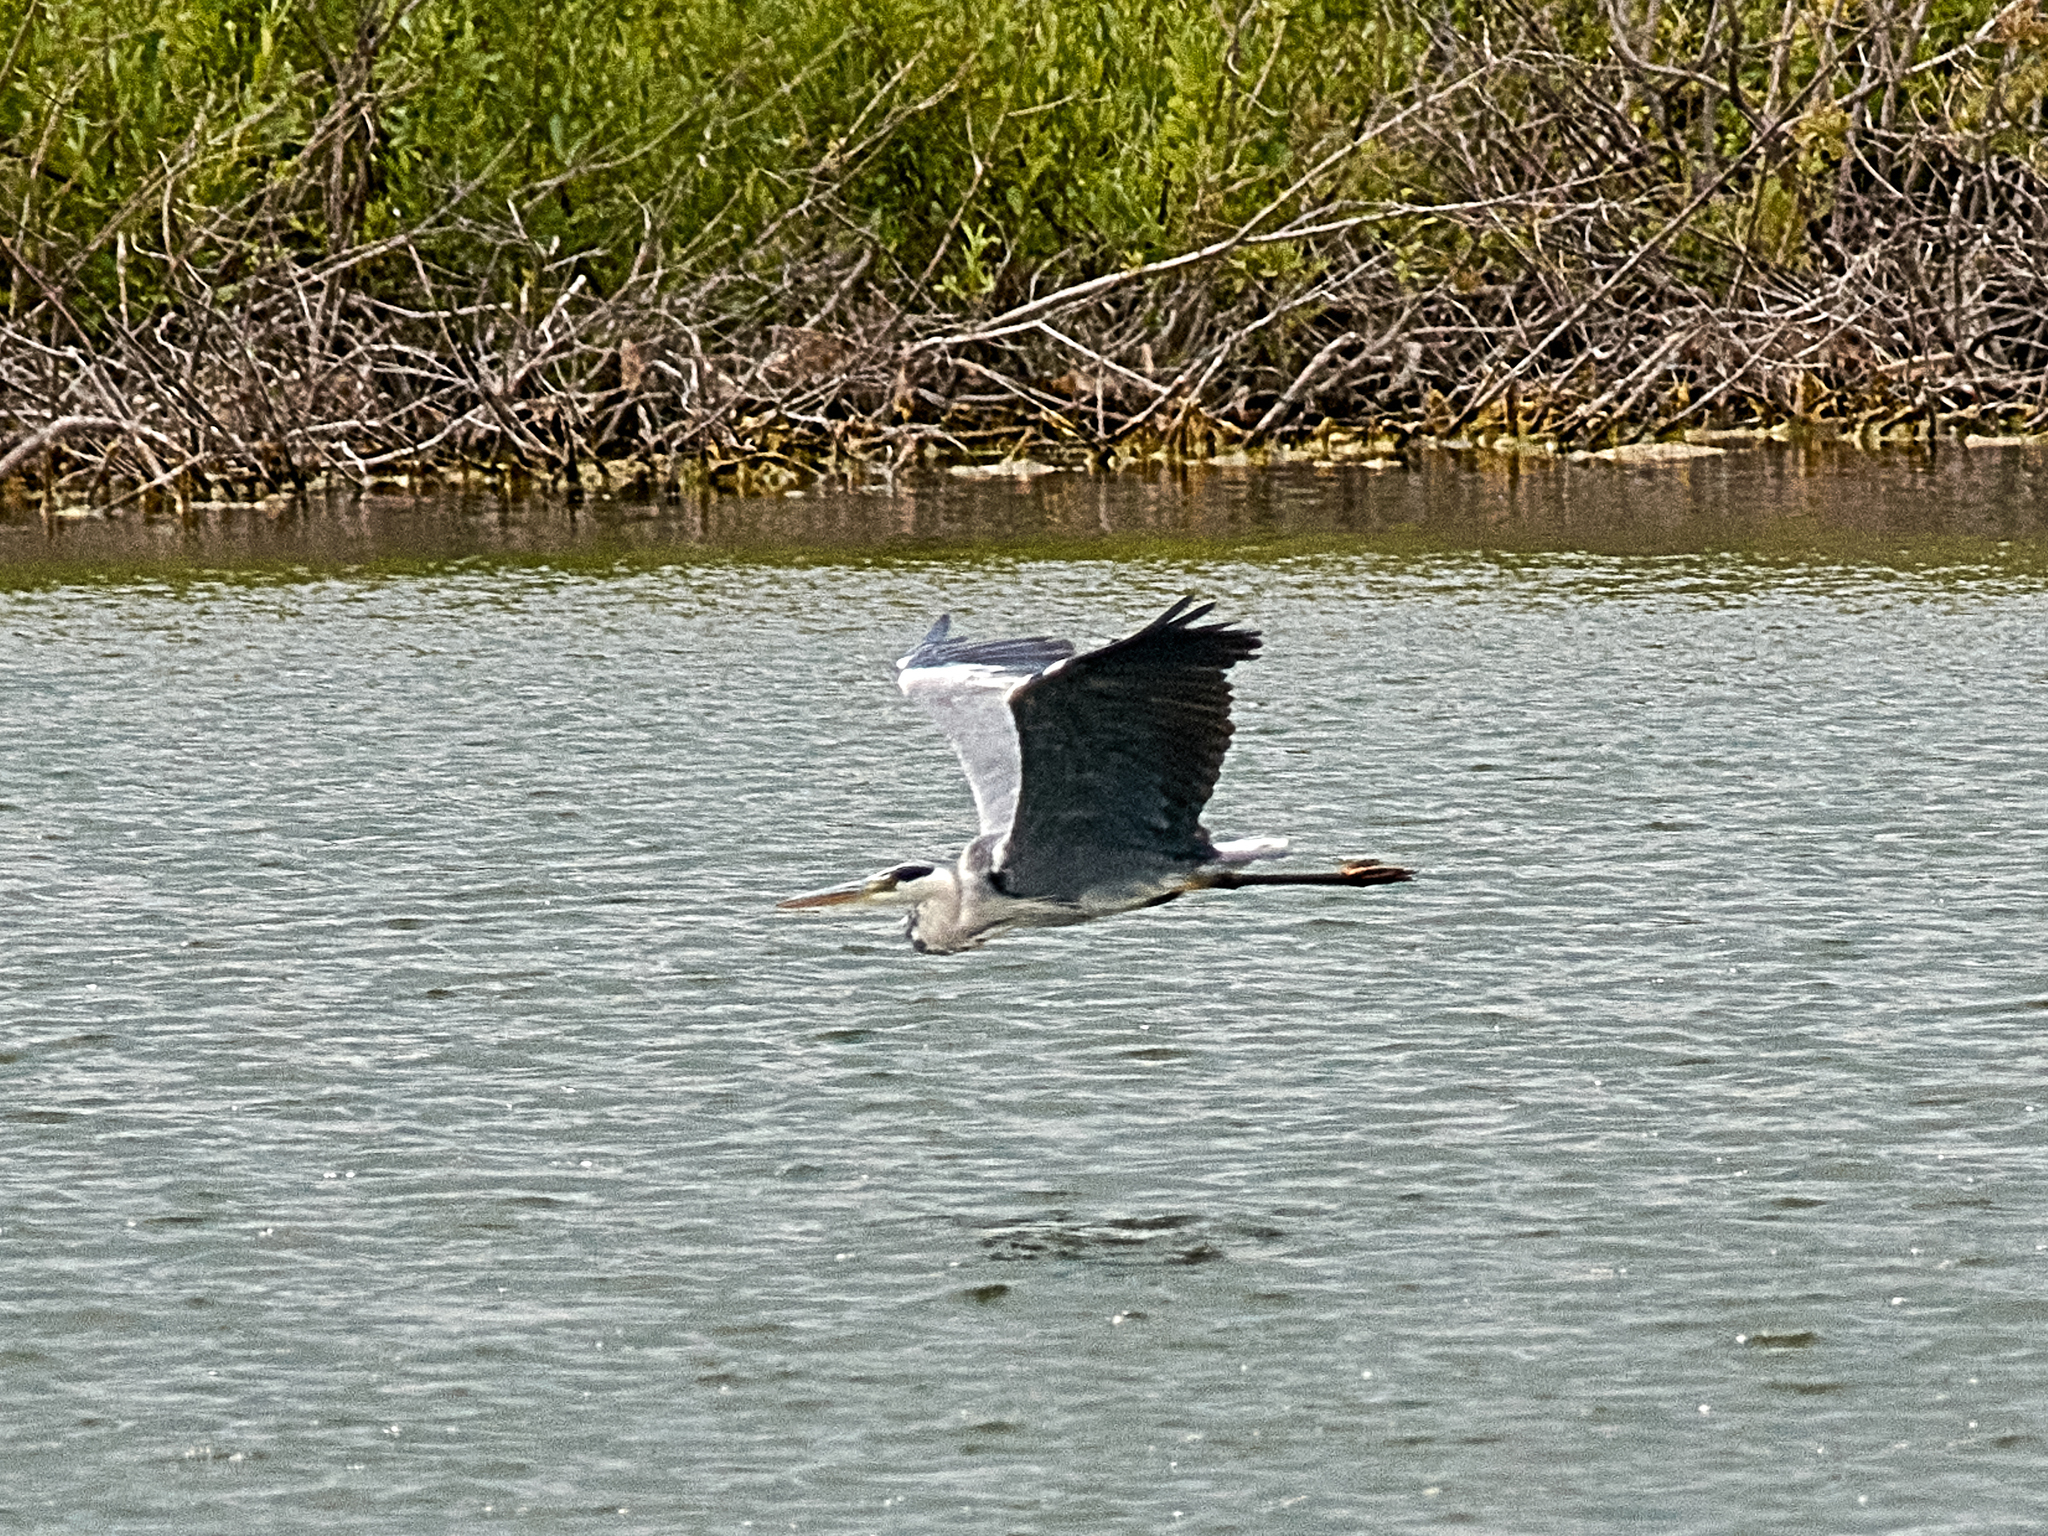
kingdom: Animalia
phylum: Chordata
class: Aves
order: Pelecaniformes
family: Ardeidae
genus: Ardea
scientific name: Ardea cinerea
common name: Grey heron
